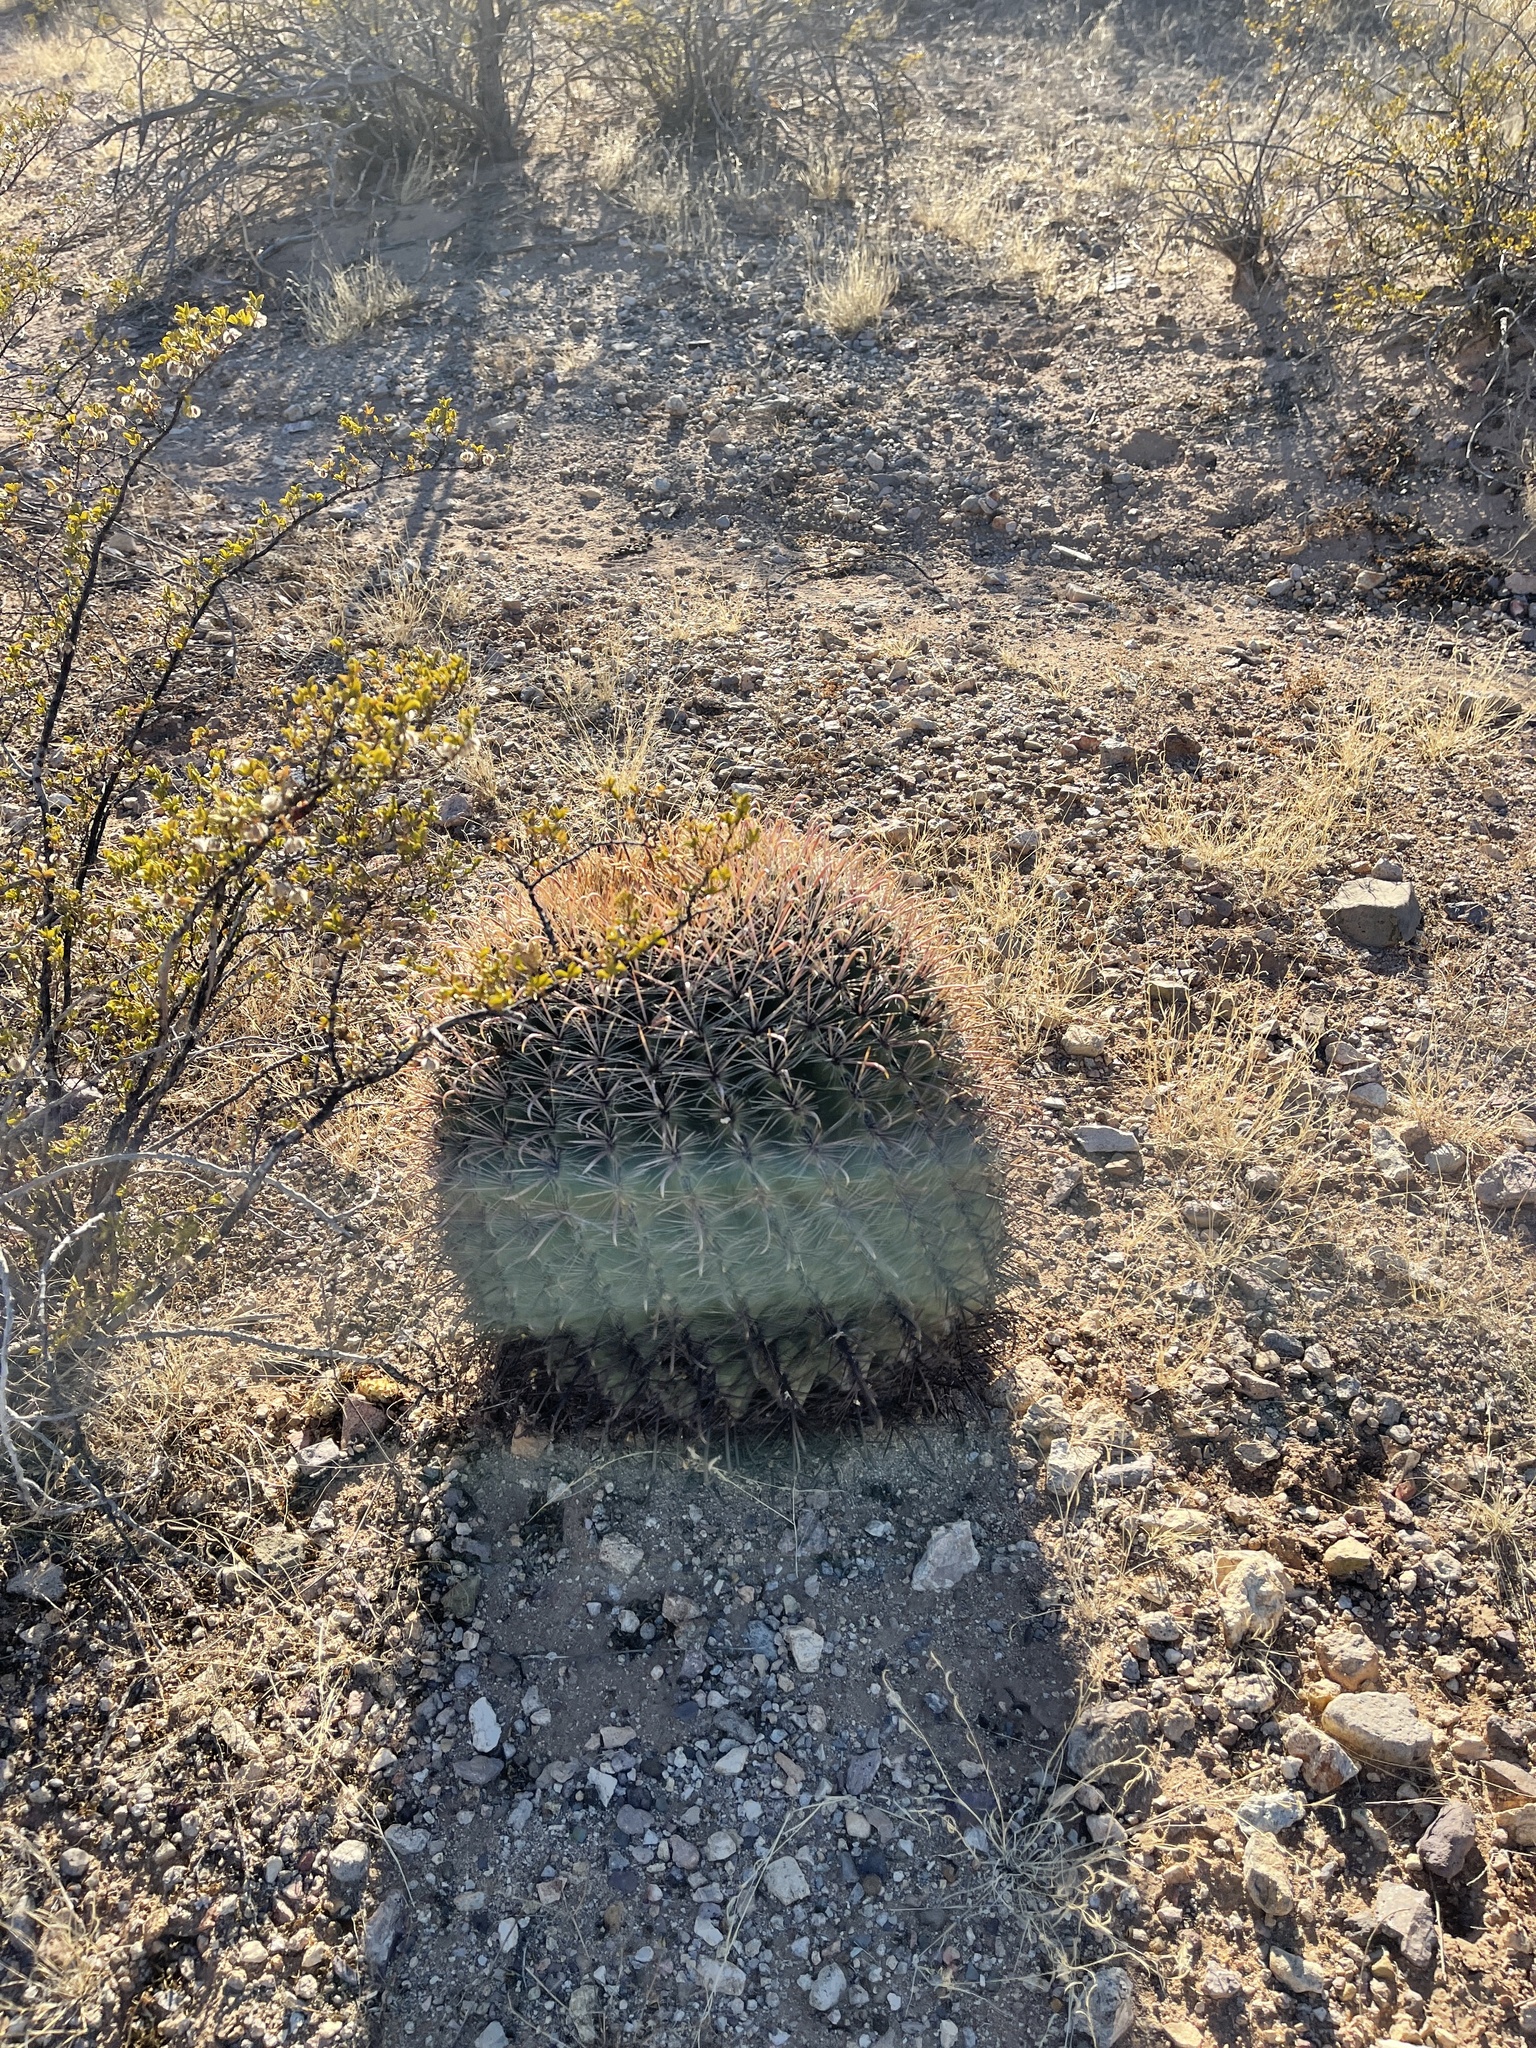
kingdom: Plantae
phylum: Tracheophyta
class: Magnoliopsida
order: Caryophyllales
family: Cactaceae
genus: Ferocactus
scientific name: Ferocactus wislizeni
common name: Candy barrel cactus
